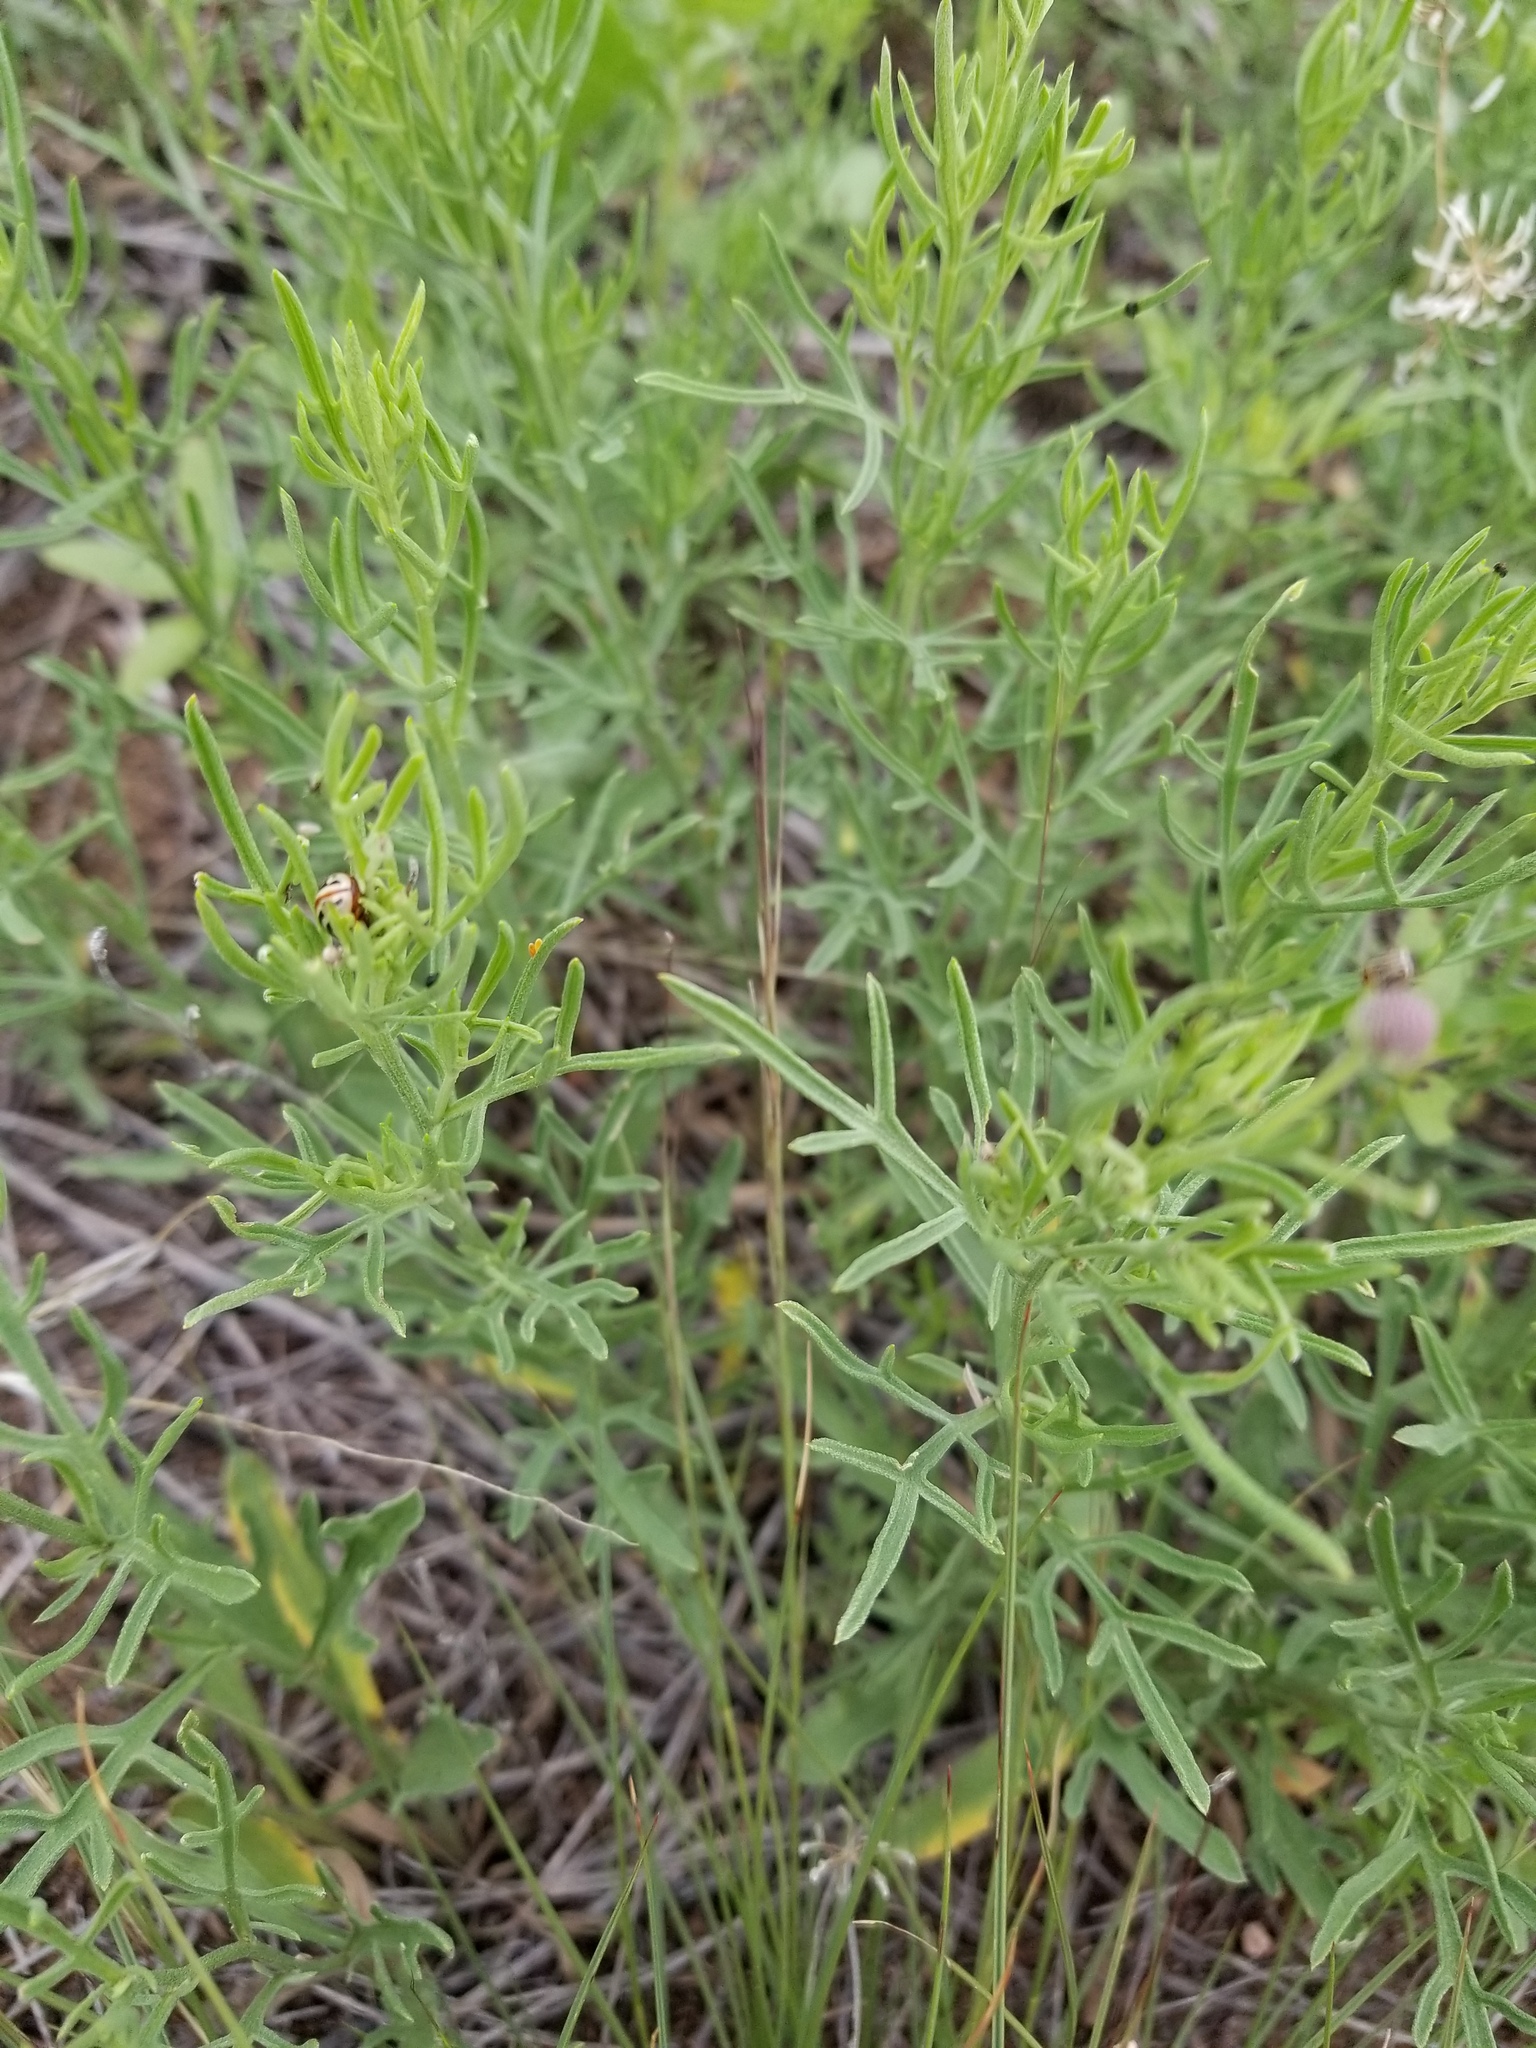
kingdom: Animalia
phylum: Arthropoda
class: Insecta
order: Coleoptera
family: Chrysomelidae
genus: Calligrapha
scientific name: Calligrapha
